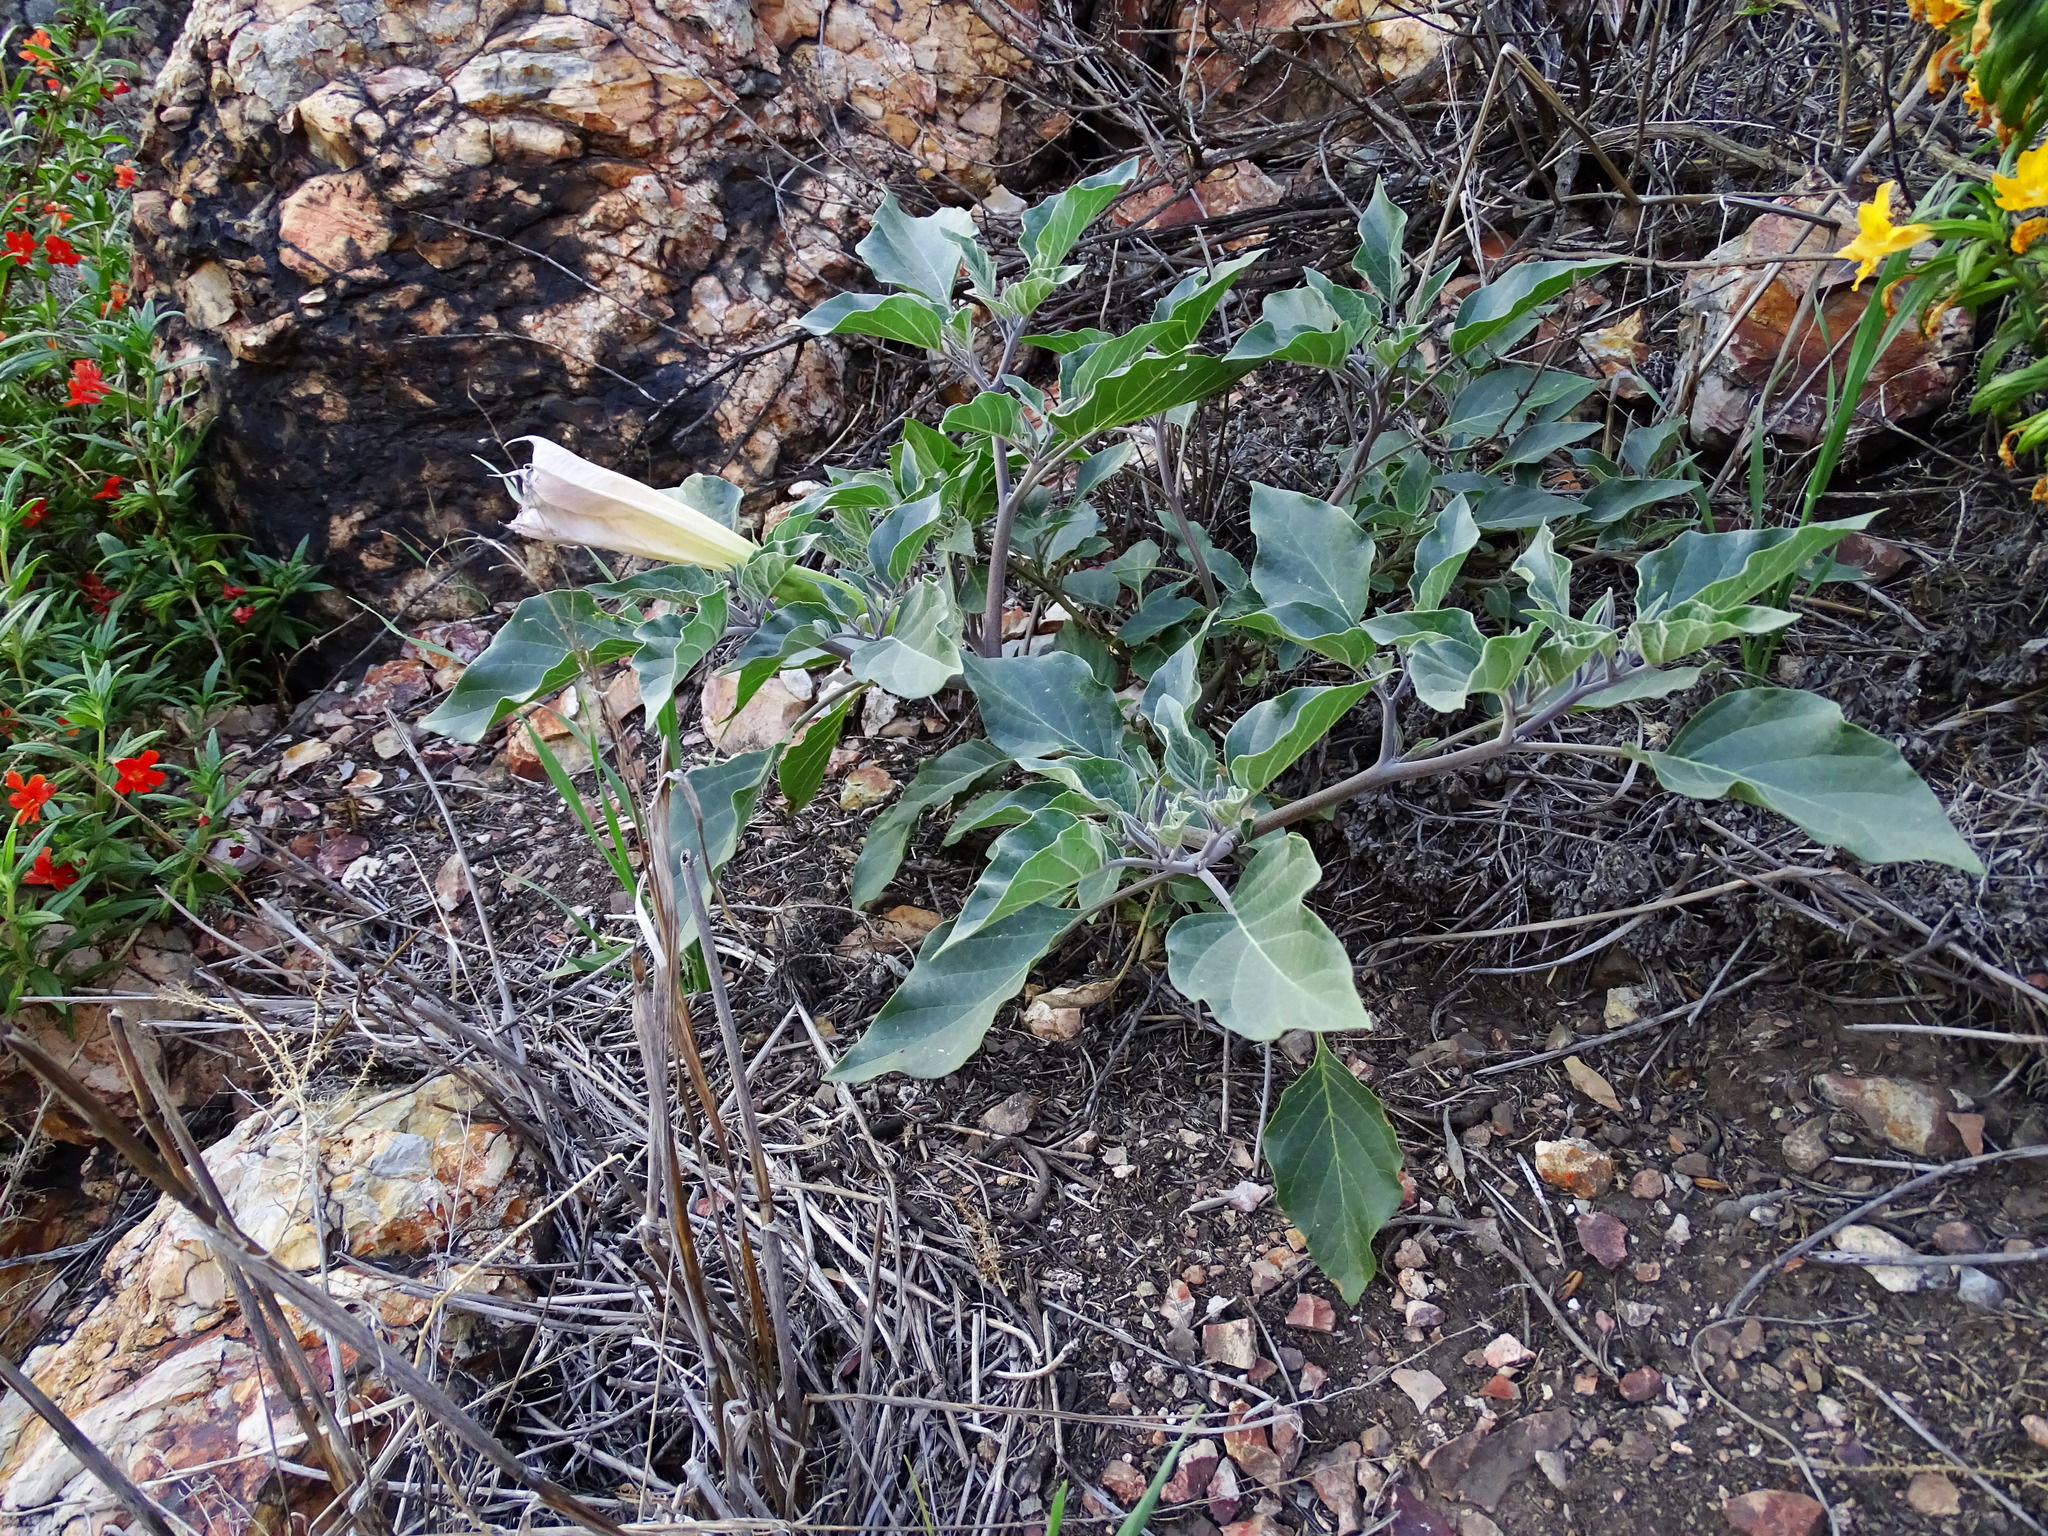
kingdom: Plantae
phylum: Tracheophyta
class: Magnoliopsida
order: Solanales
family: Solanaceae
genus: Datura
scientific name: Datura wrightii
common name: Sacred thorn-apple
